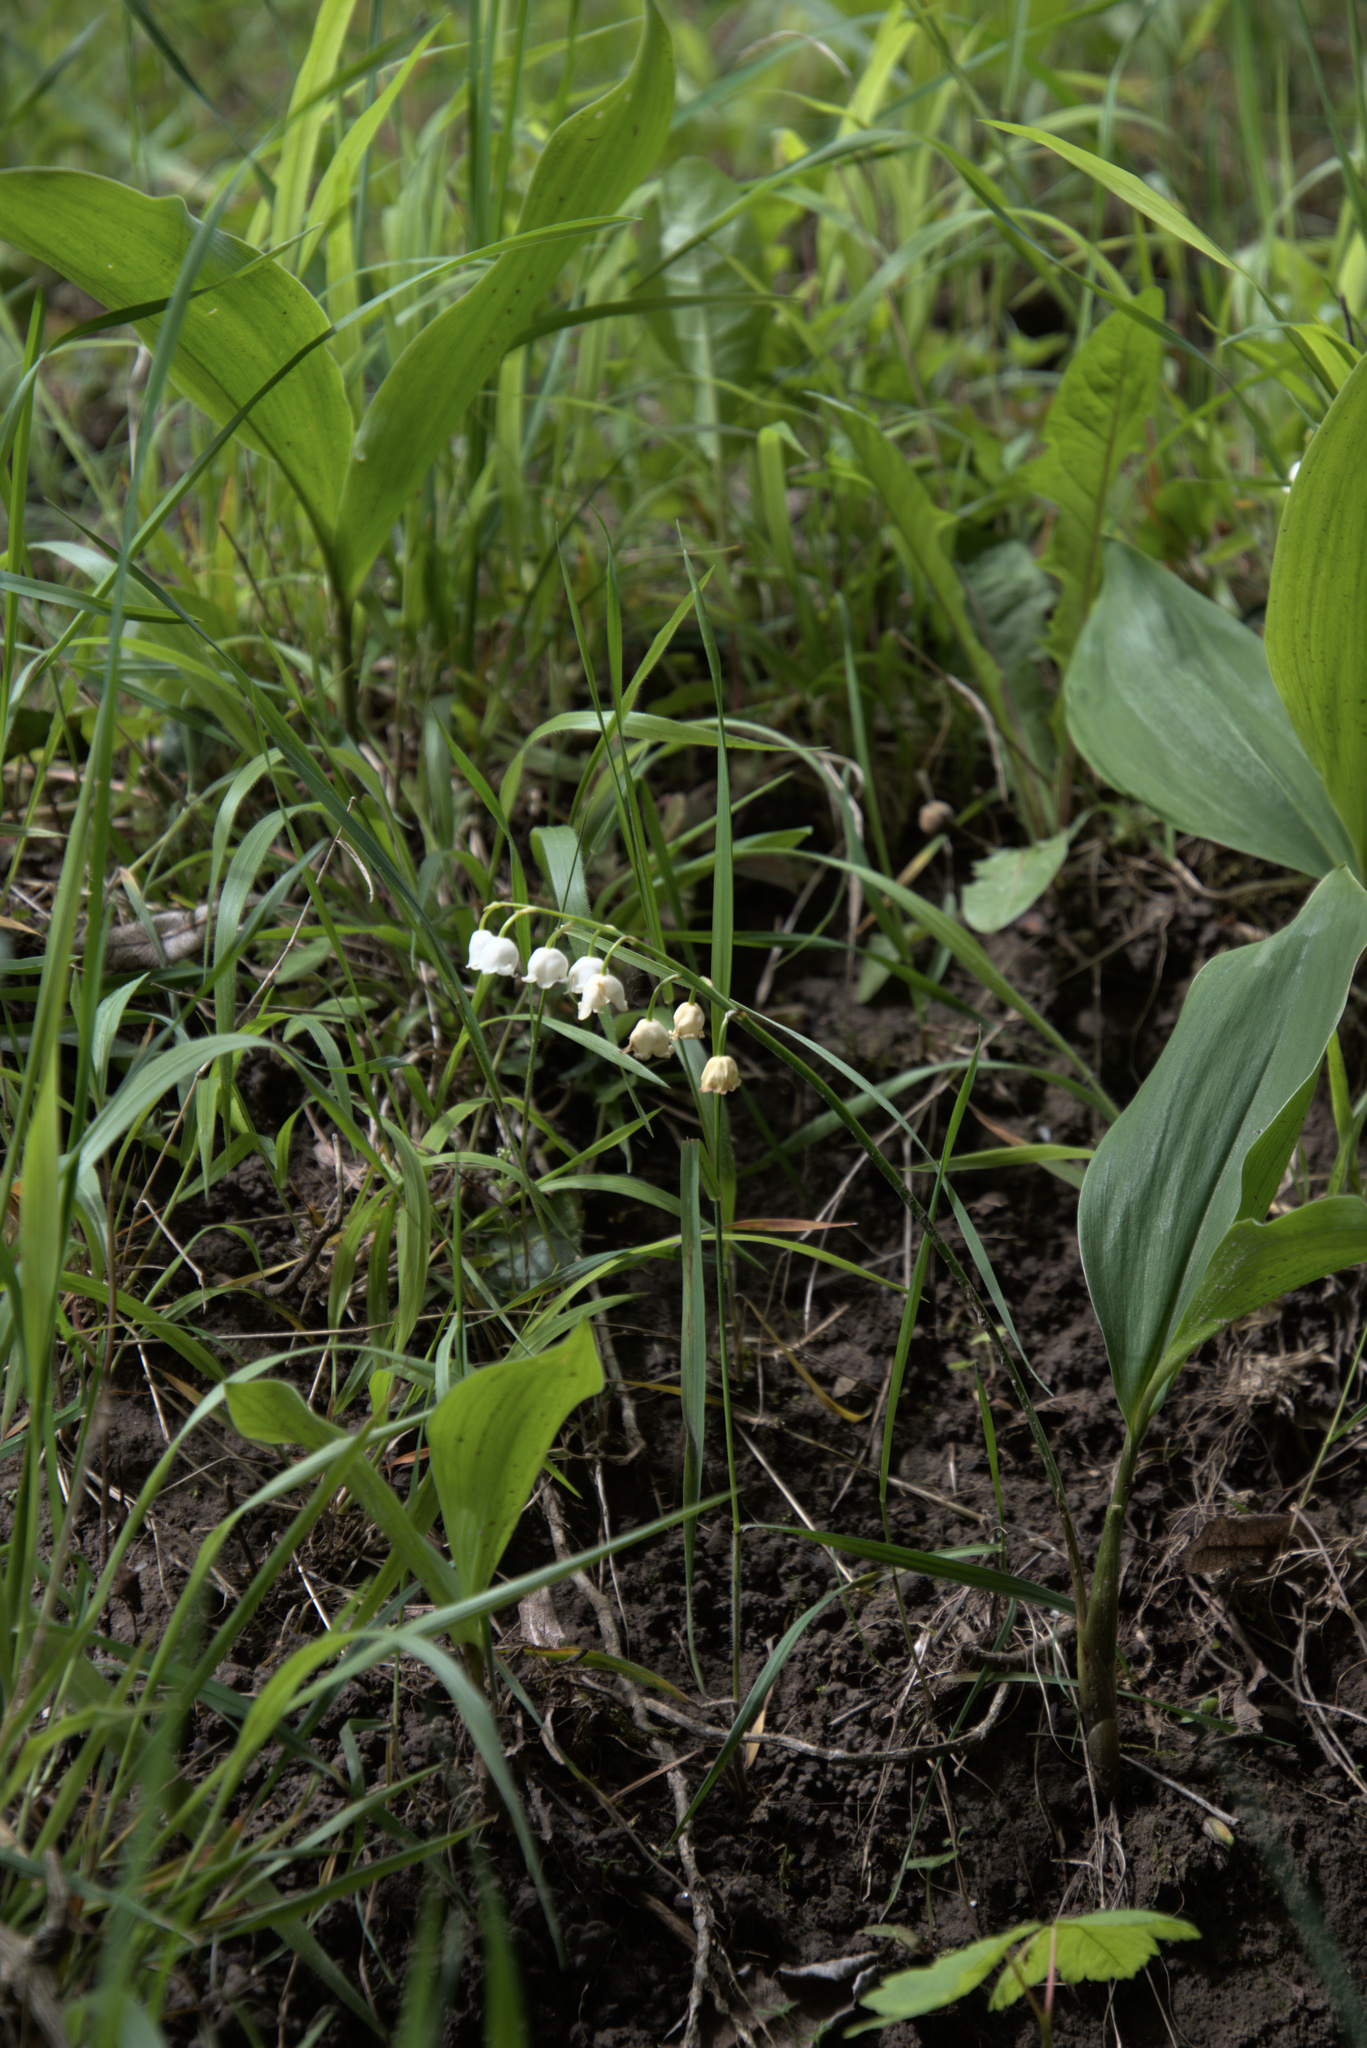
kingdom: Plantae
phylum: Tracheophyta
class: Liliopsida
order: Asparagales
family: Asparagaceae
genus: Convallaria
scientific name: Convallaria majalis
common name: Lily-of-the-valley
